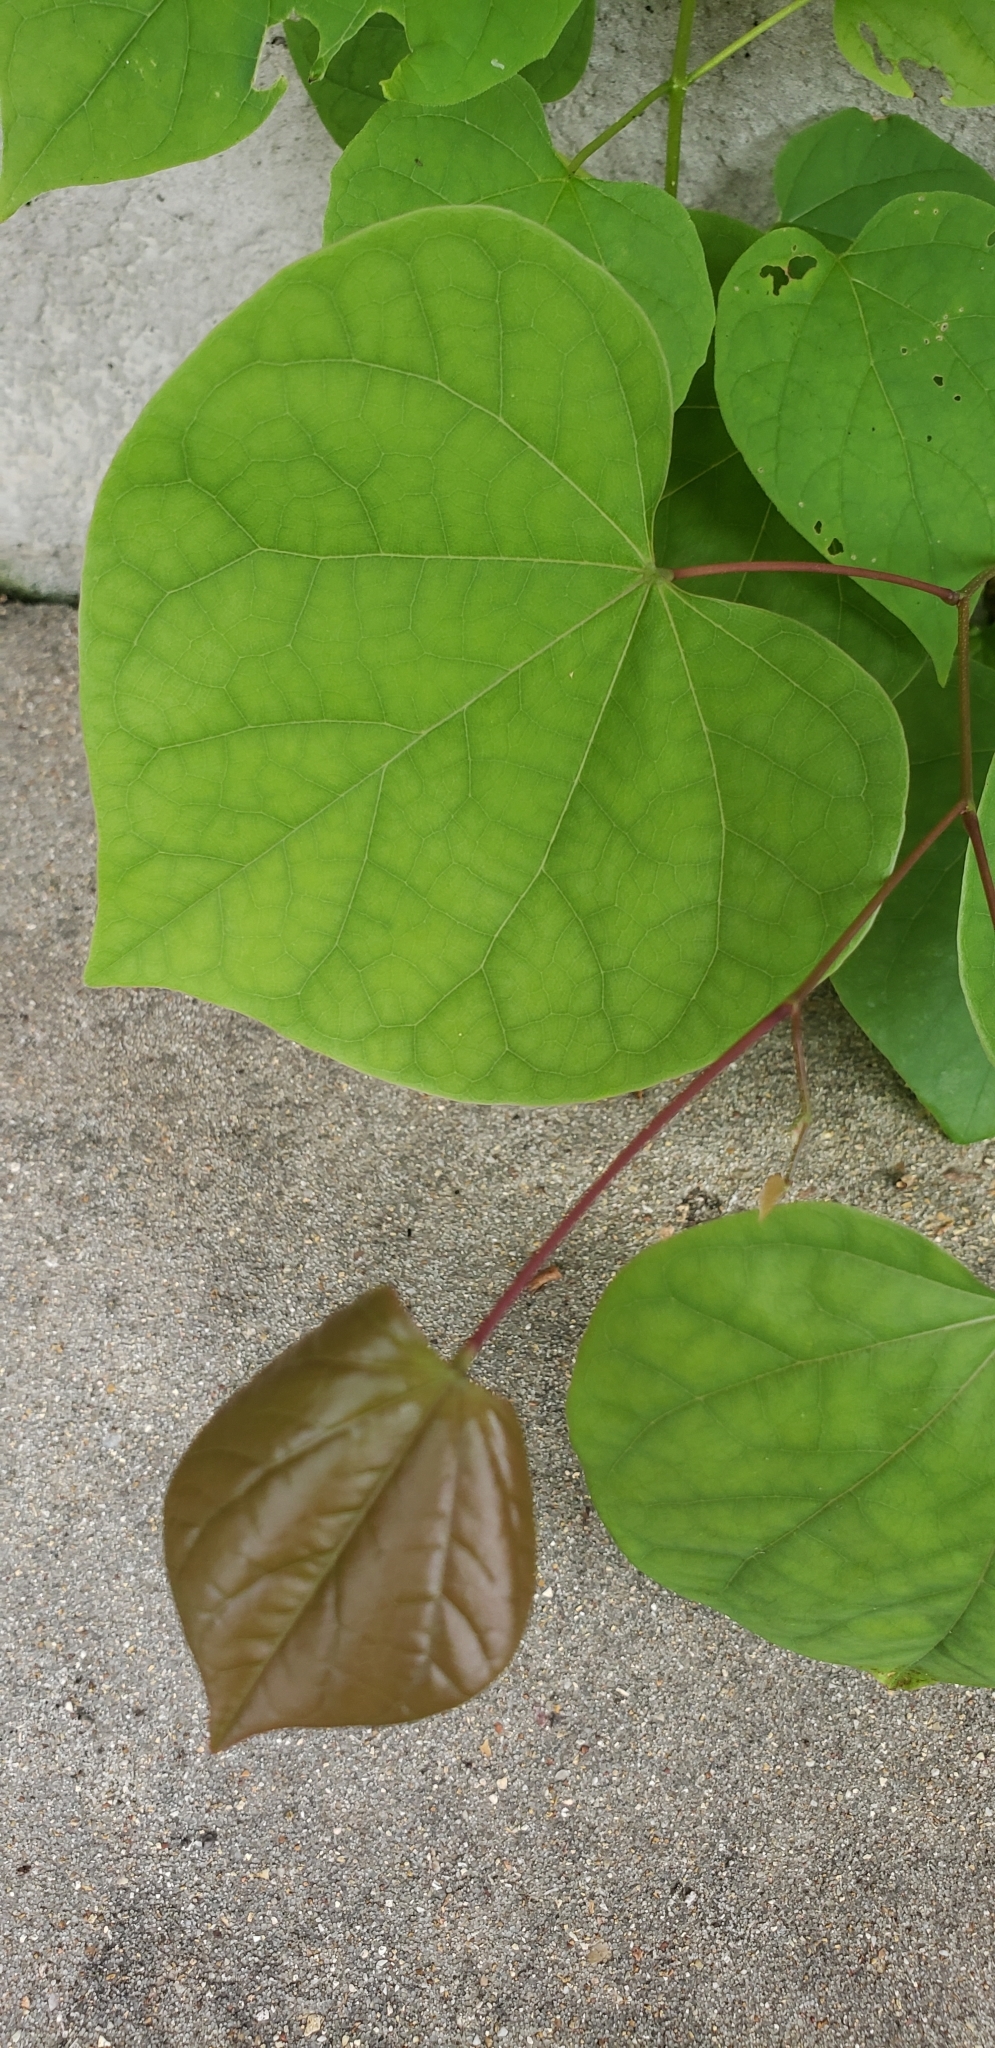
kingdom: Plantae
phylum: Tracheophyta
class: Magnoliopsida
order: Fabales
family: Fabaceae
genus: Cercis
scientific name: Cercis canadensis
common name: Eastern redbud
